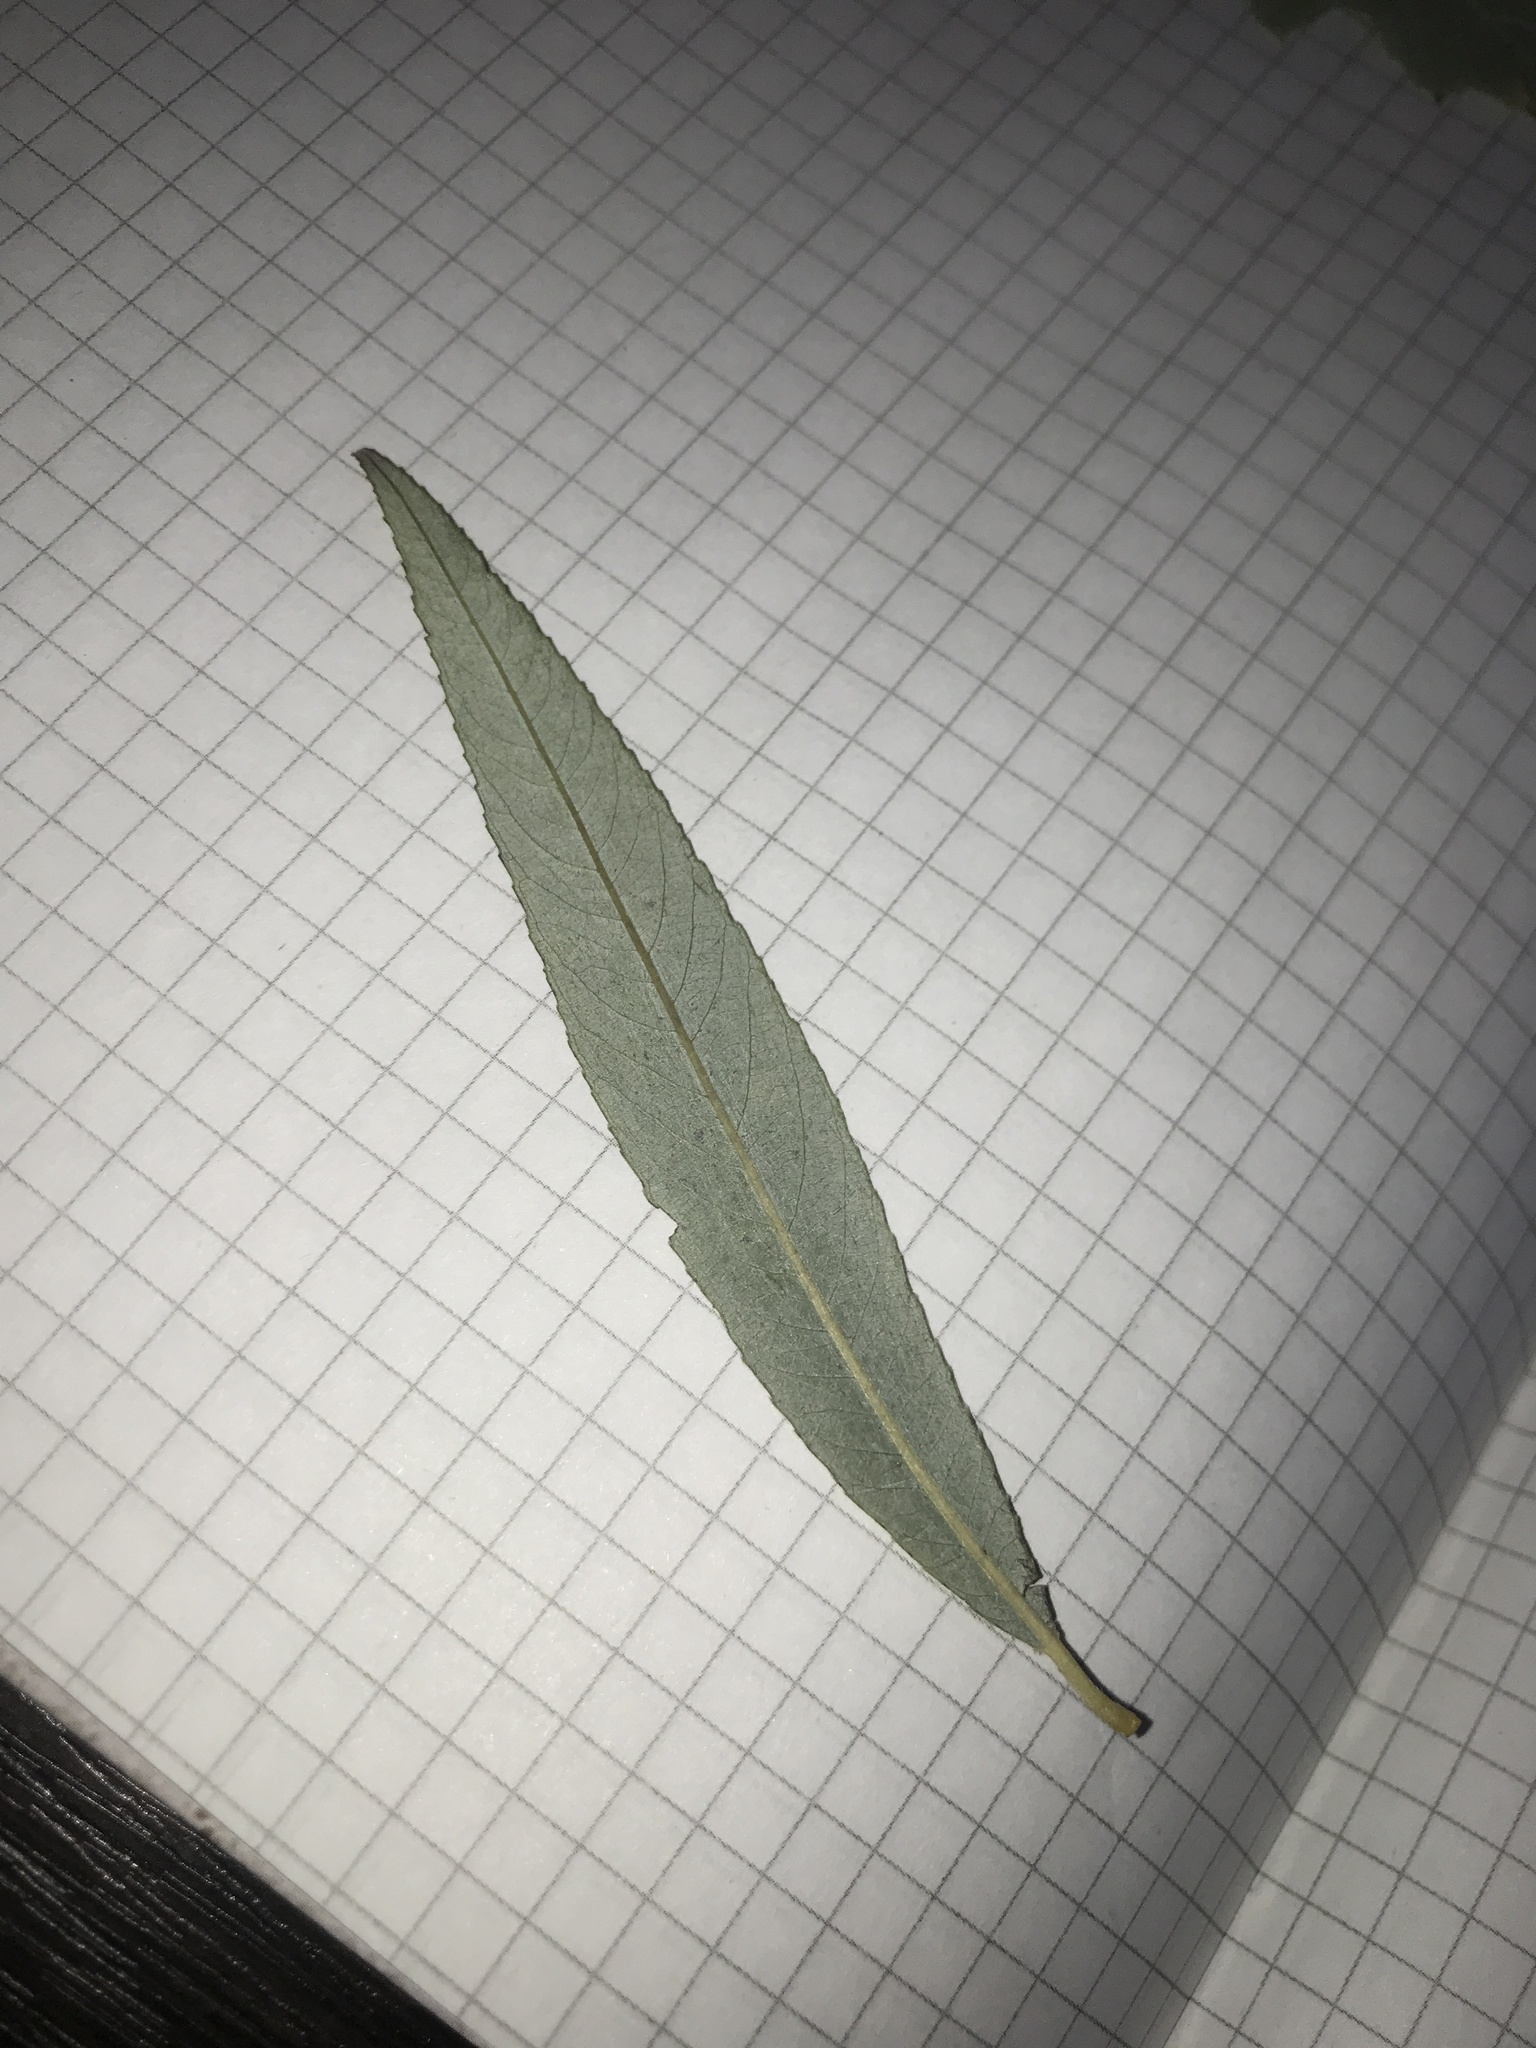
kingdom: Plantae
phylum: Tracheophyta
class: Magnoliopsida
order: Malpighiales
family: Salicaceae
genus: Salix
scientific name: Salix
